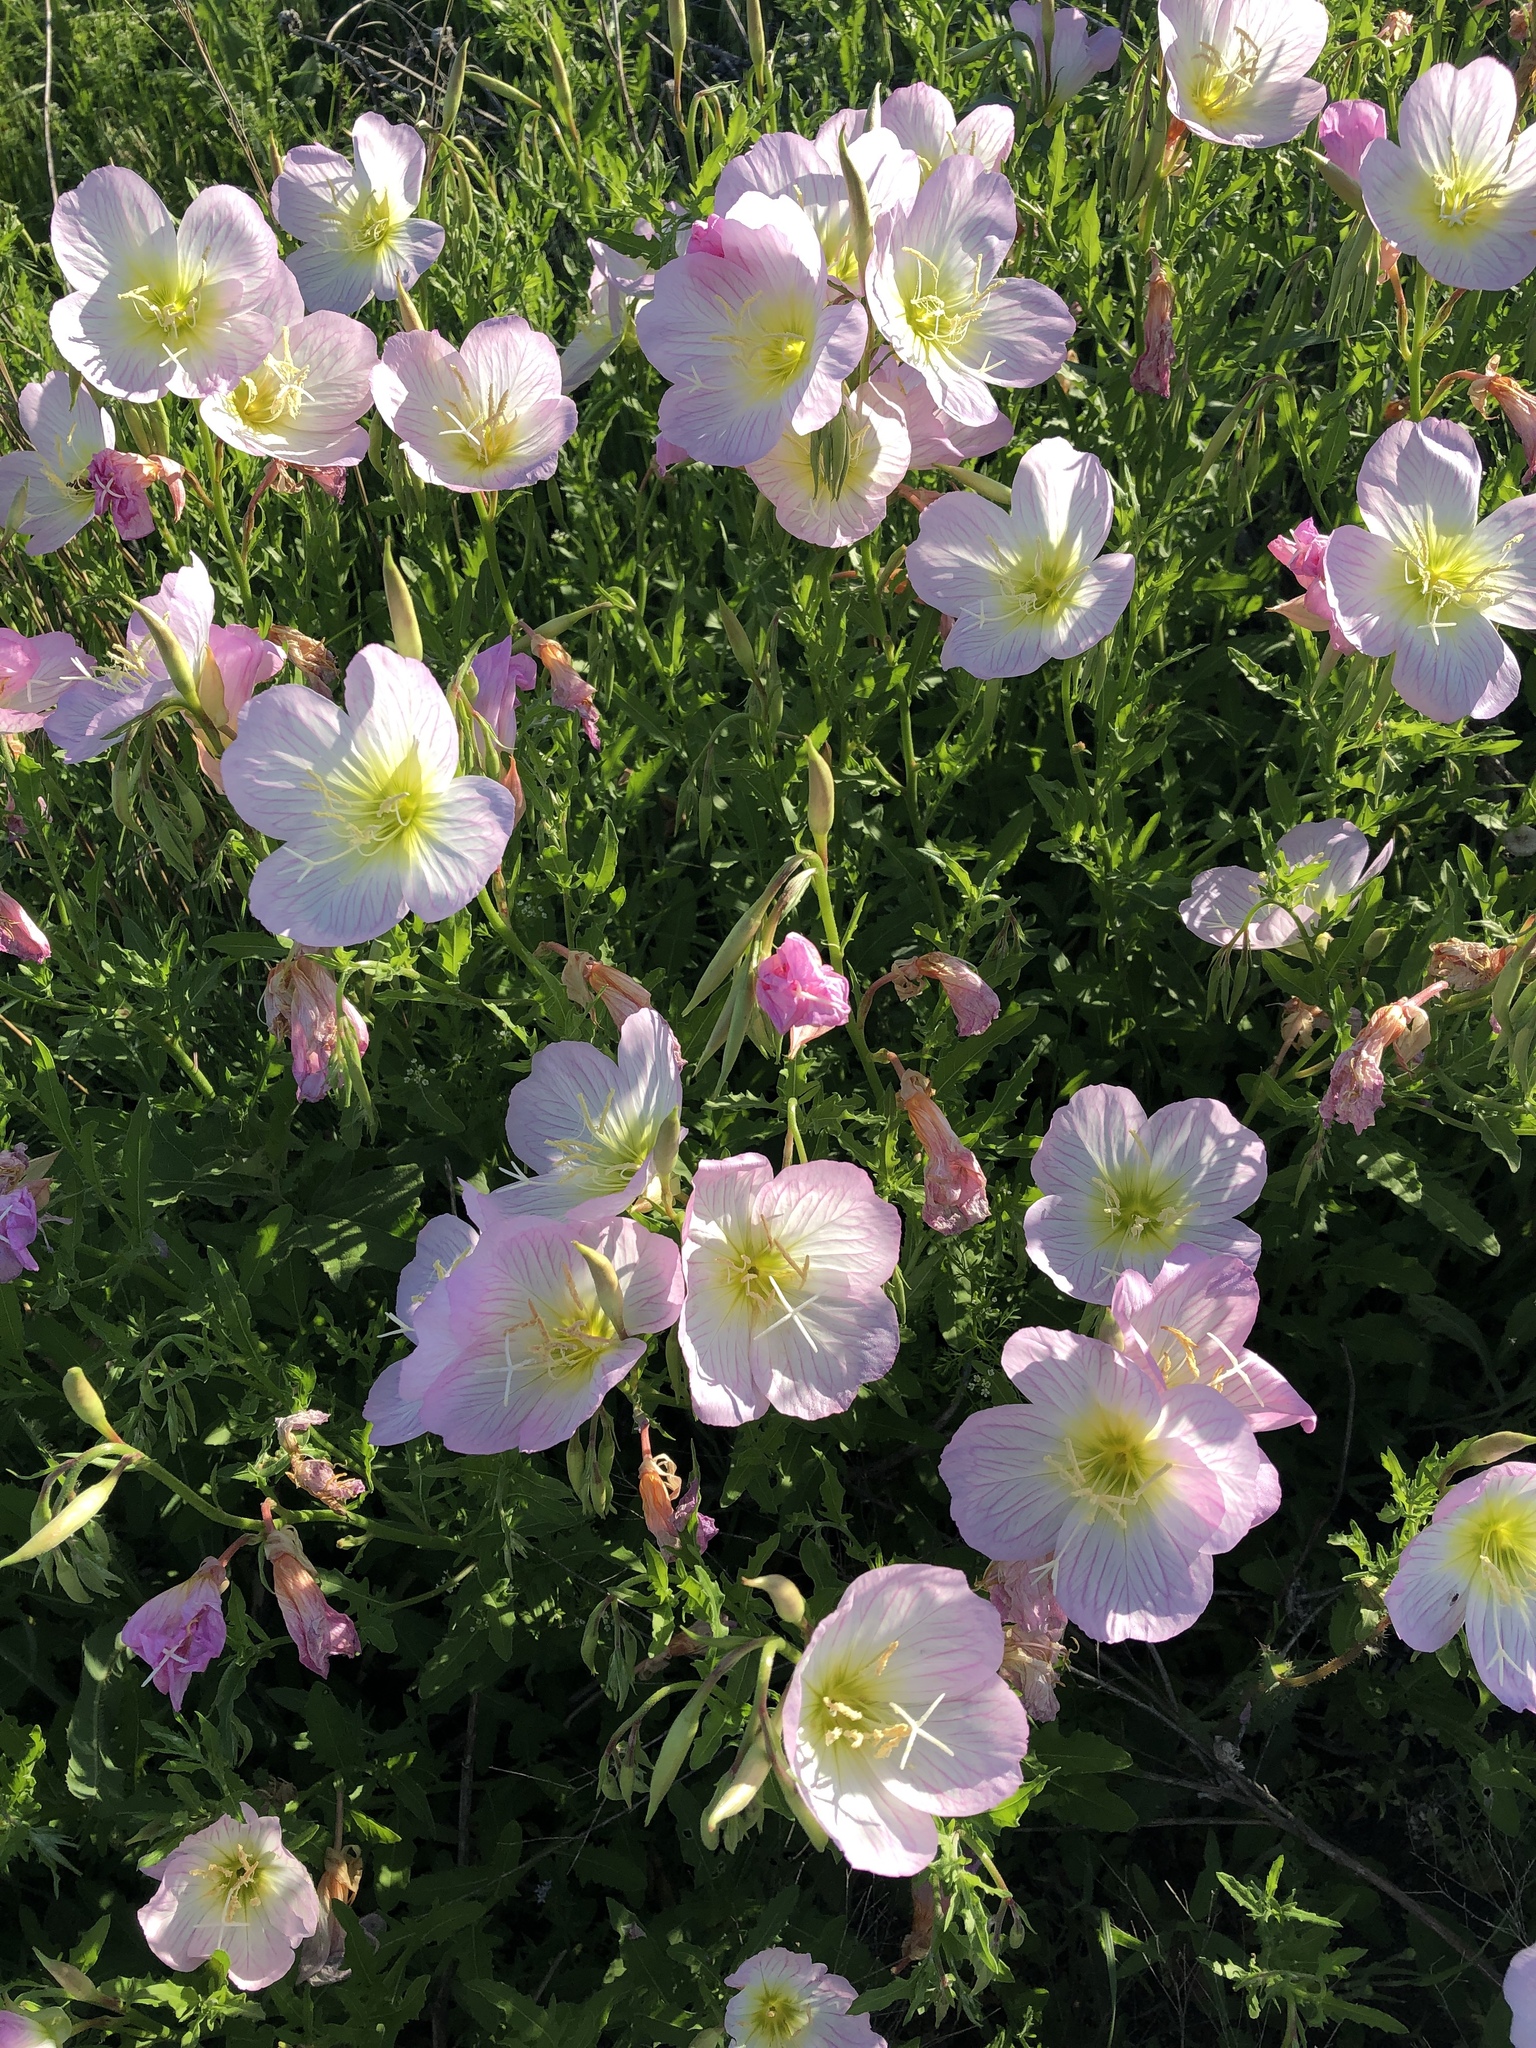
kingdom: Plantae
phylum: Tracheophyta
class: Magnoliopsida
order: Myrtales
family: Onagraceae
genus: Oenothera
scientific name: Oenothera speciosa
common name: White evening-primrose
